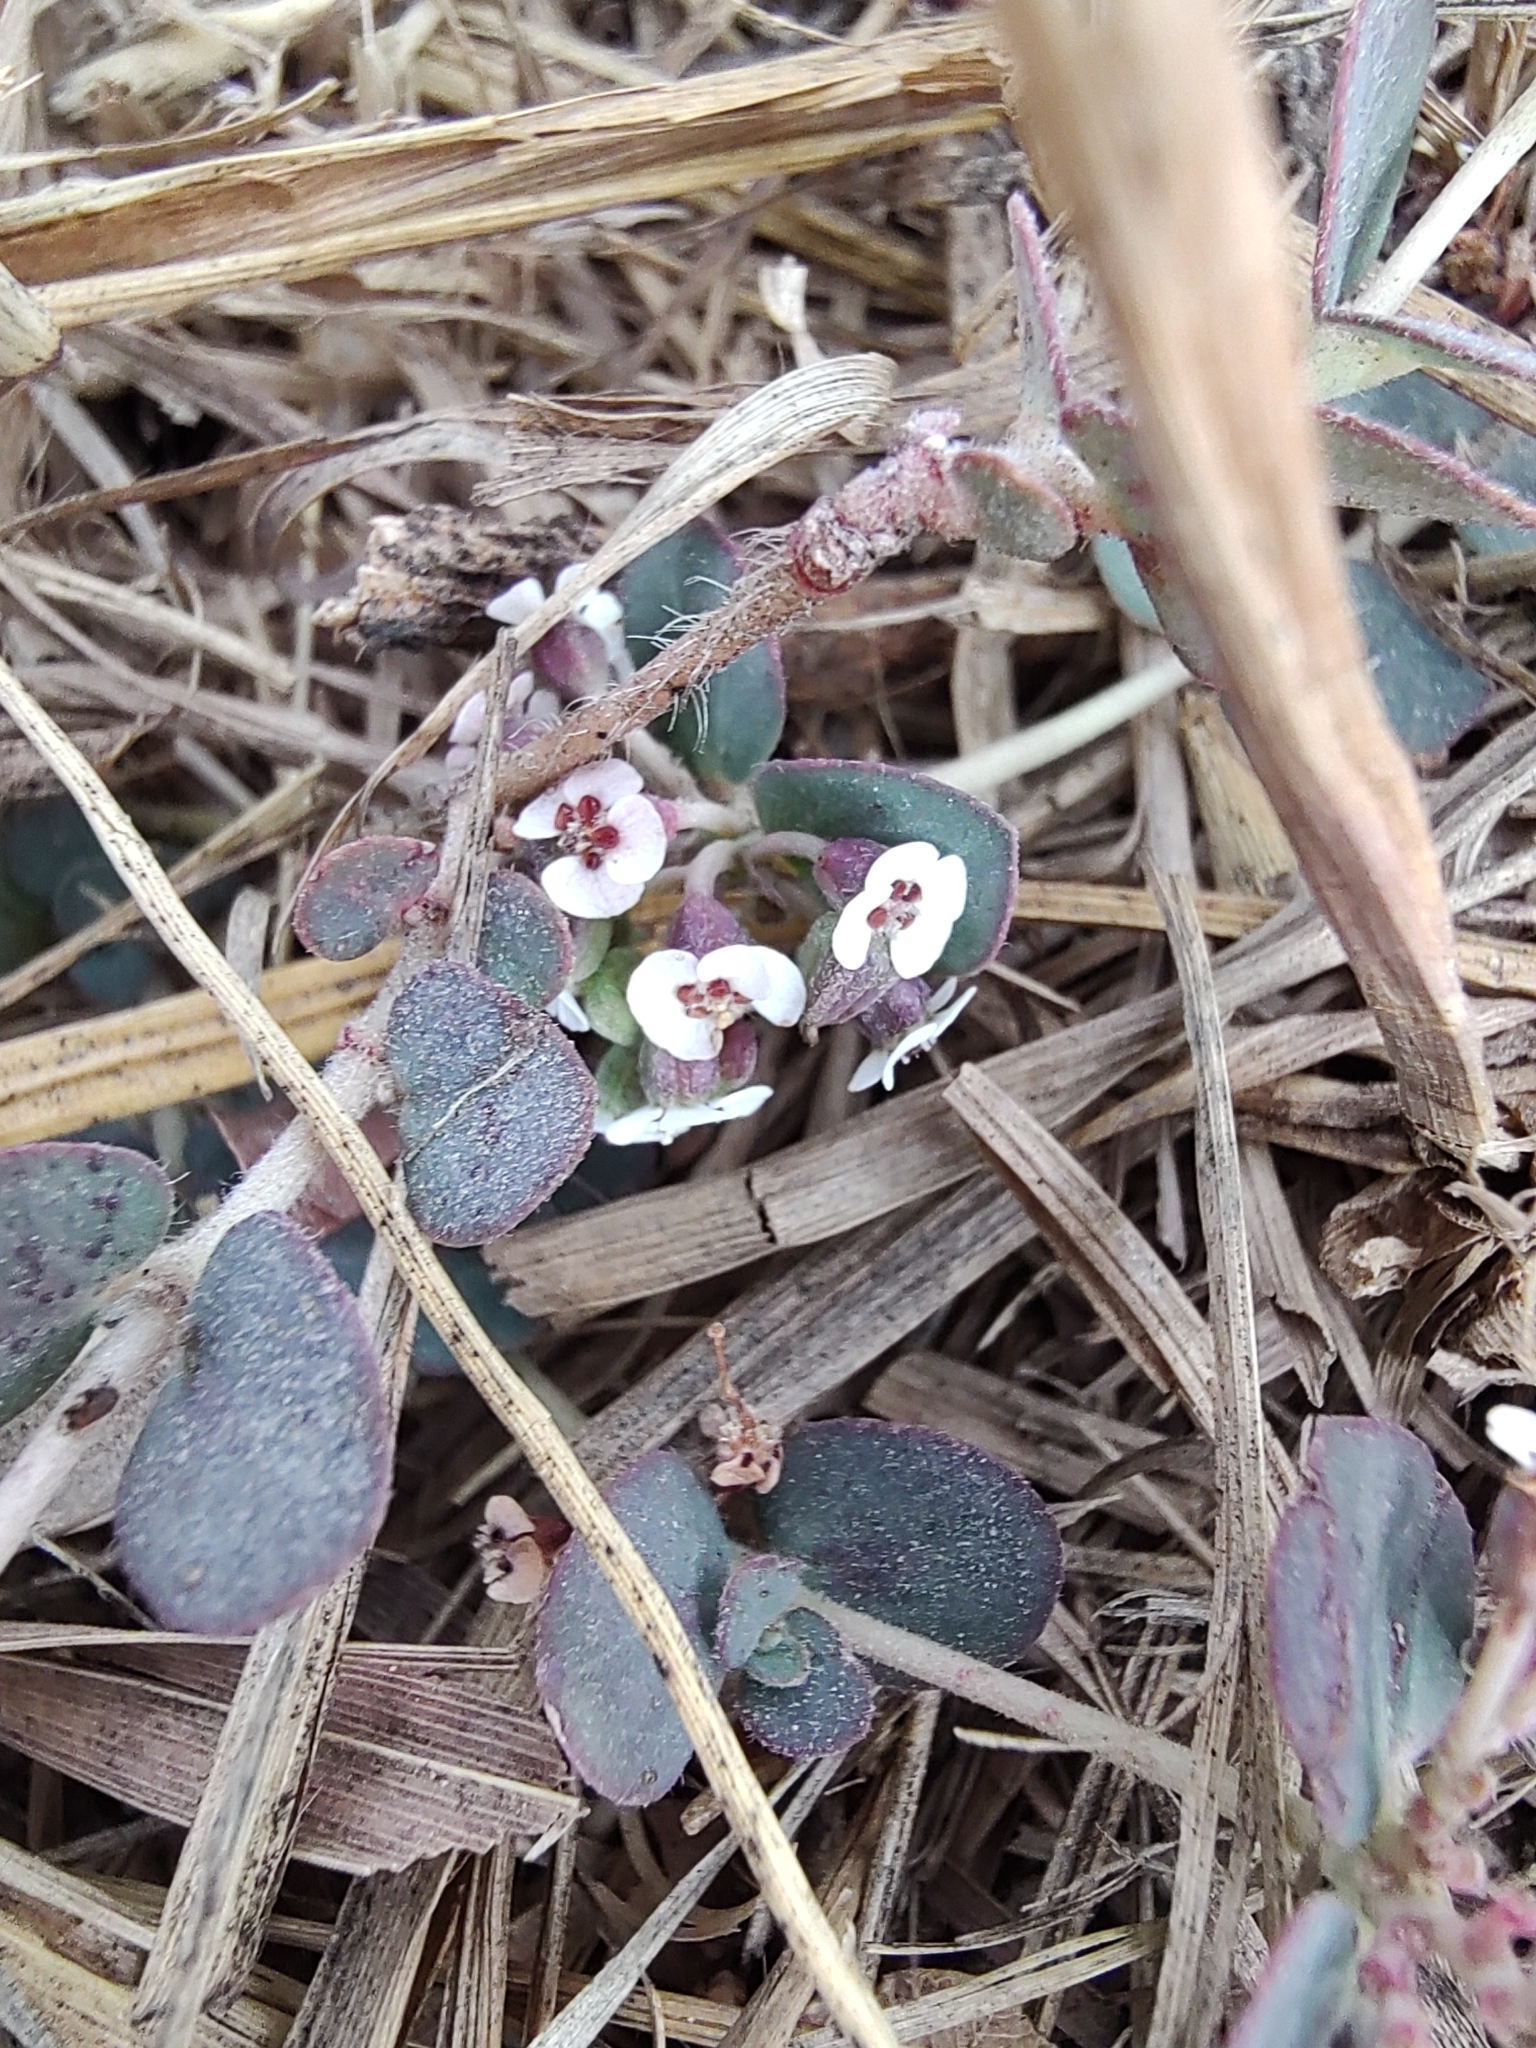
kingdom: Plantae
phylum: Tracheophyta
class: Magnoliopsida
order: Malpighiales
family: Euphorbiaceae
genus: Euphorbia
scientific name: Euphorbia umbellulata
